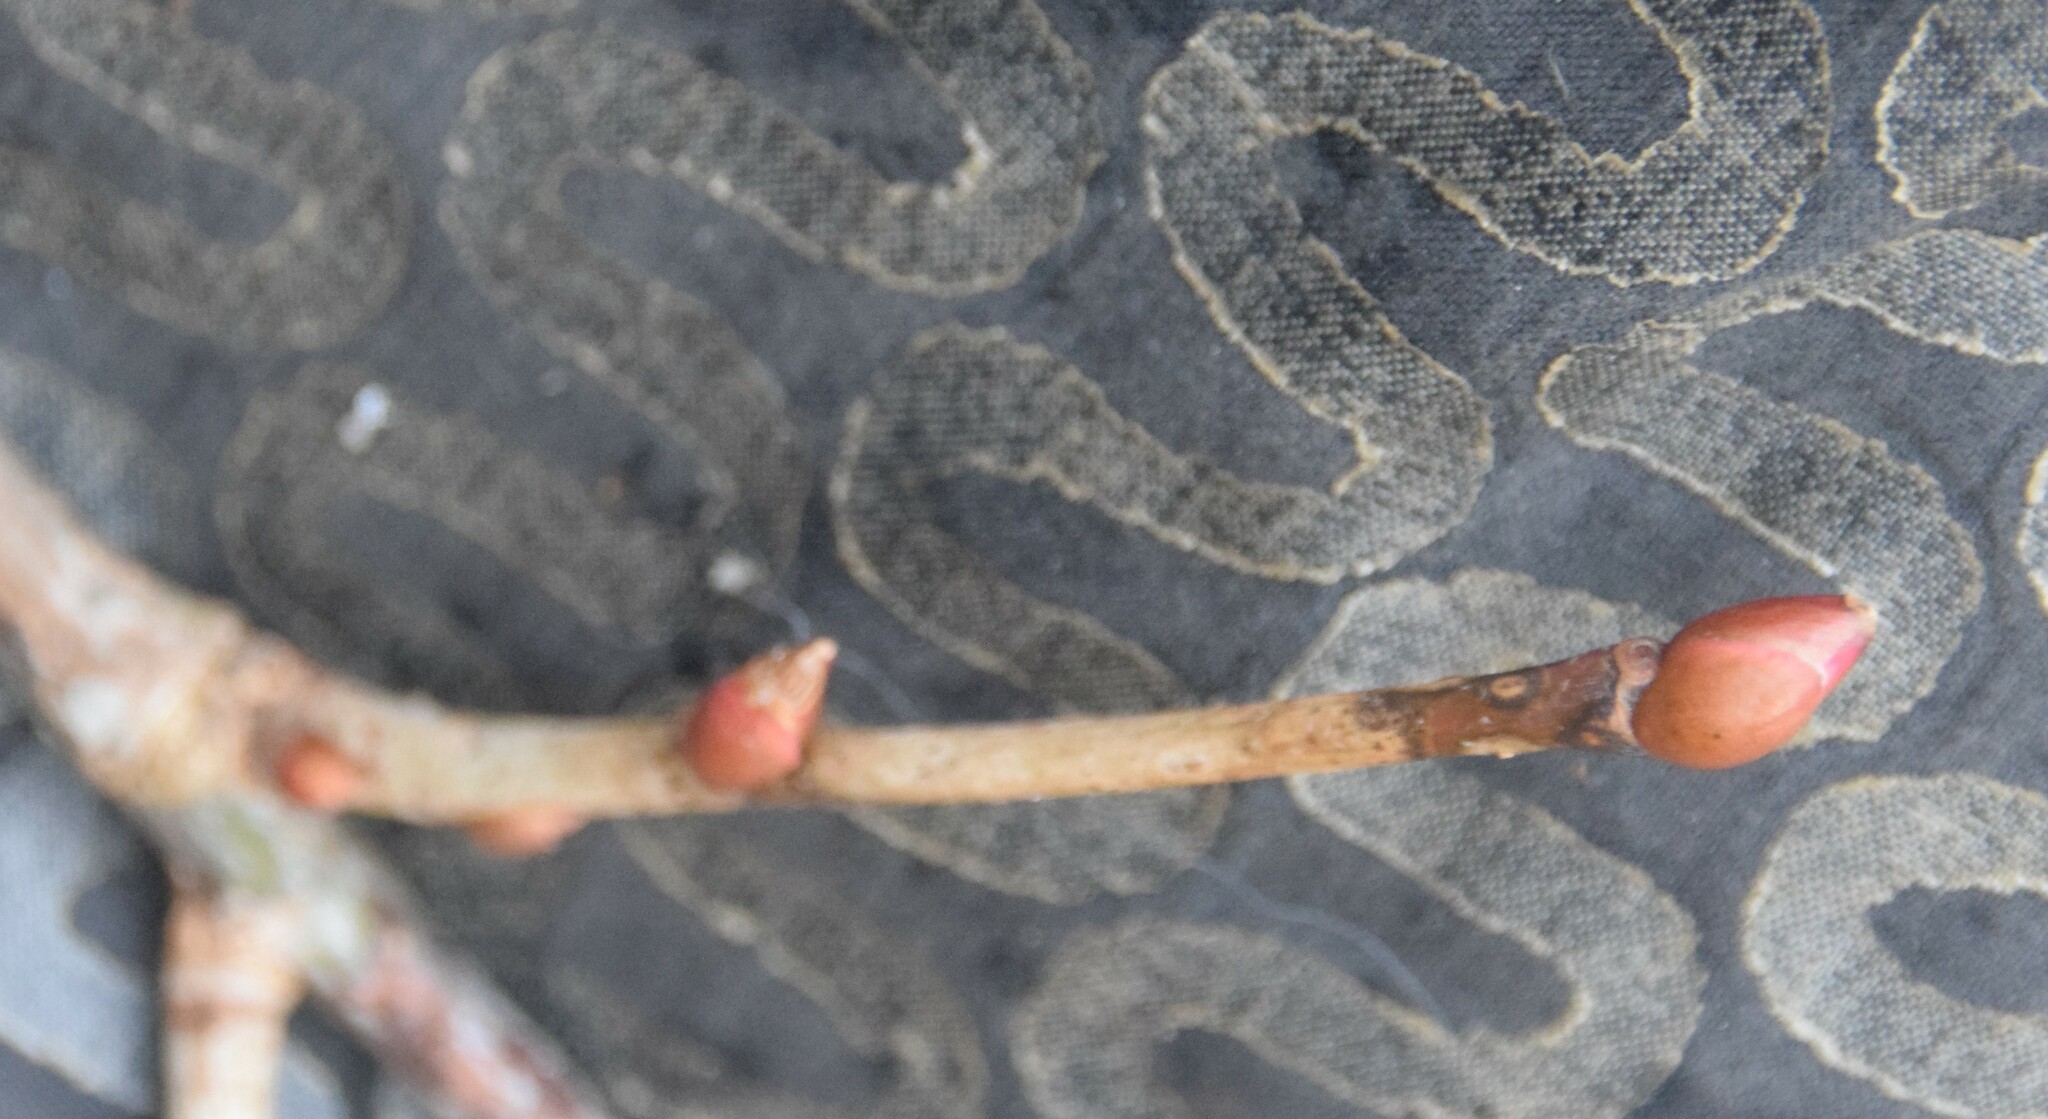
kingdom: Plantae
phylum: Tracheophyta
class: Magnoliopsida
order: Malvales
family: Malvaceae
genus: Tilia
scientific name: Tilia americana
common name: Basswood
